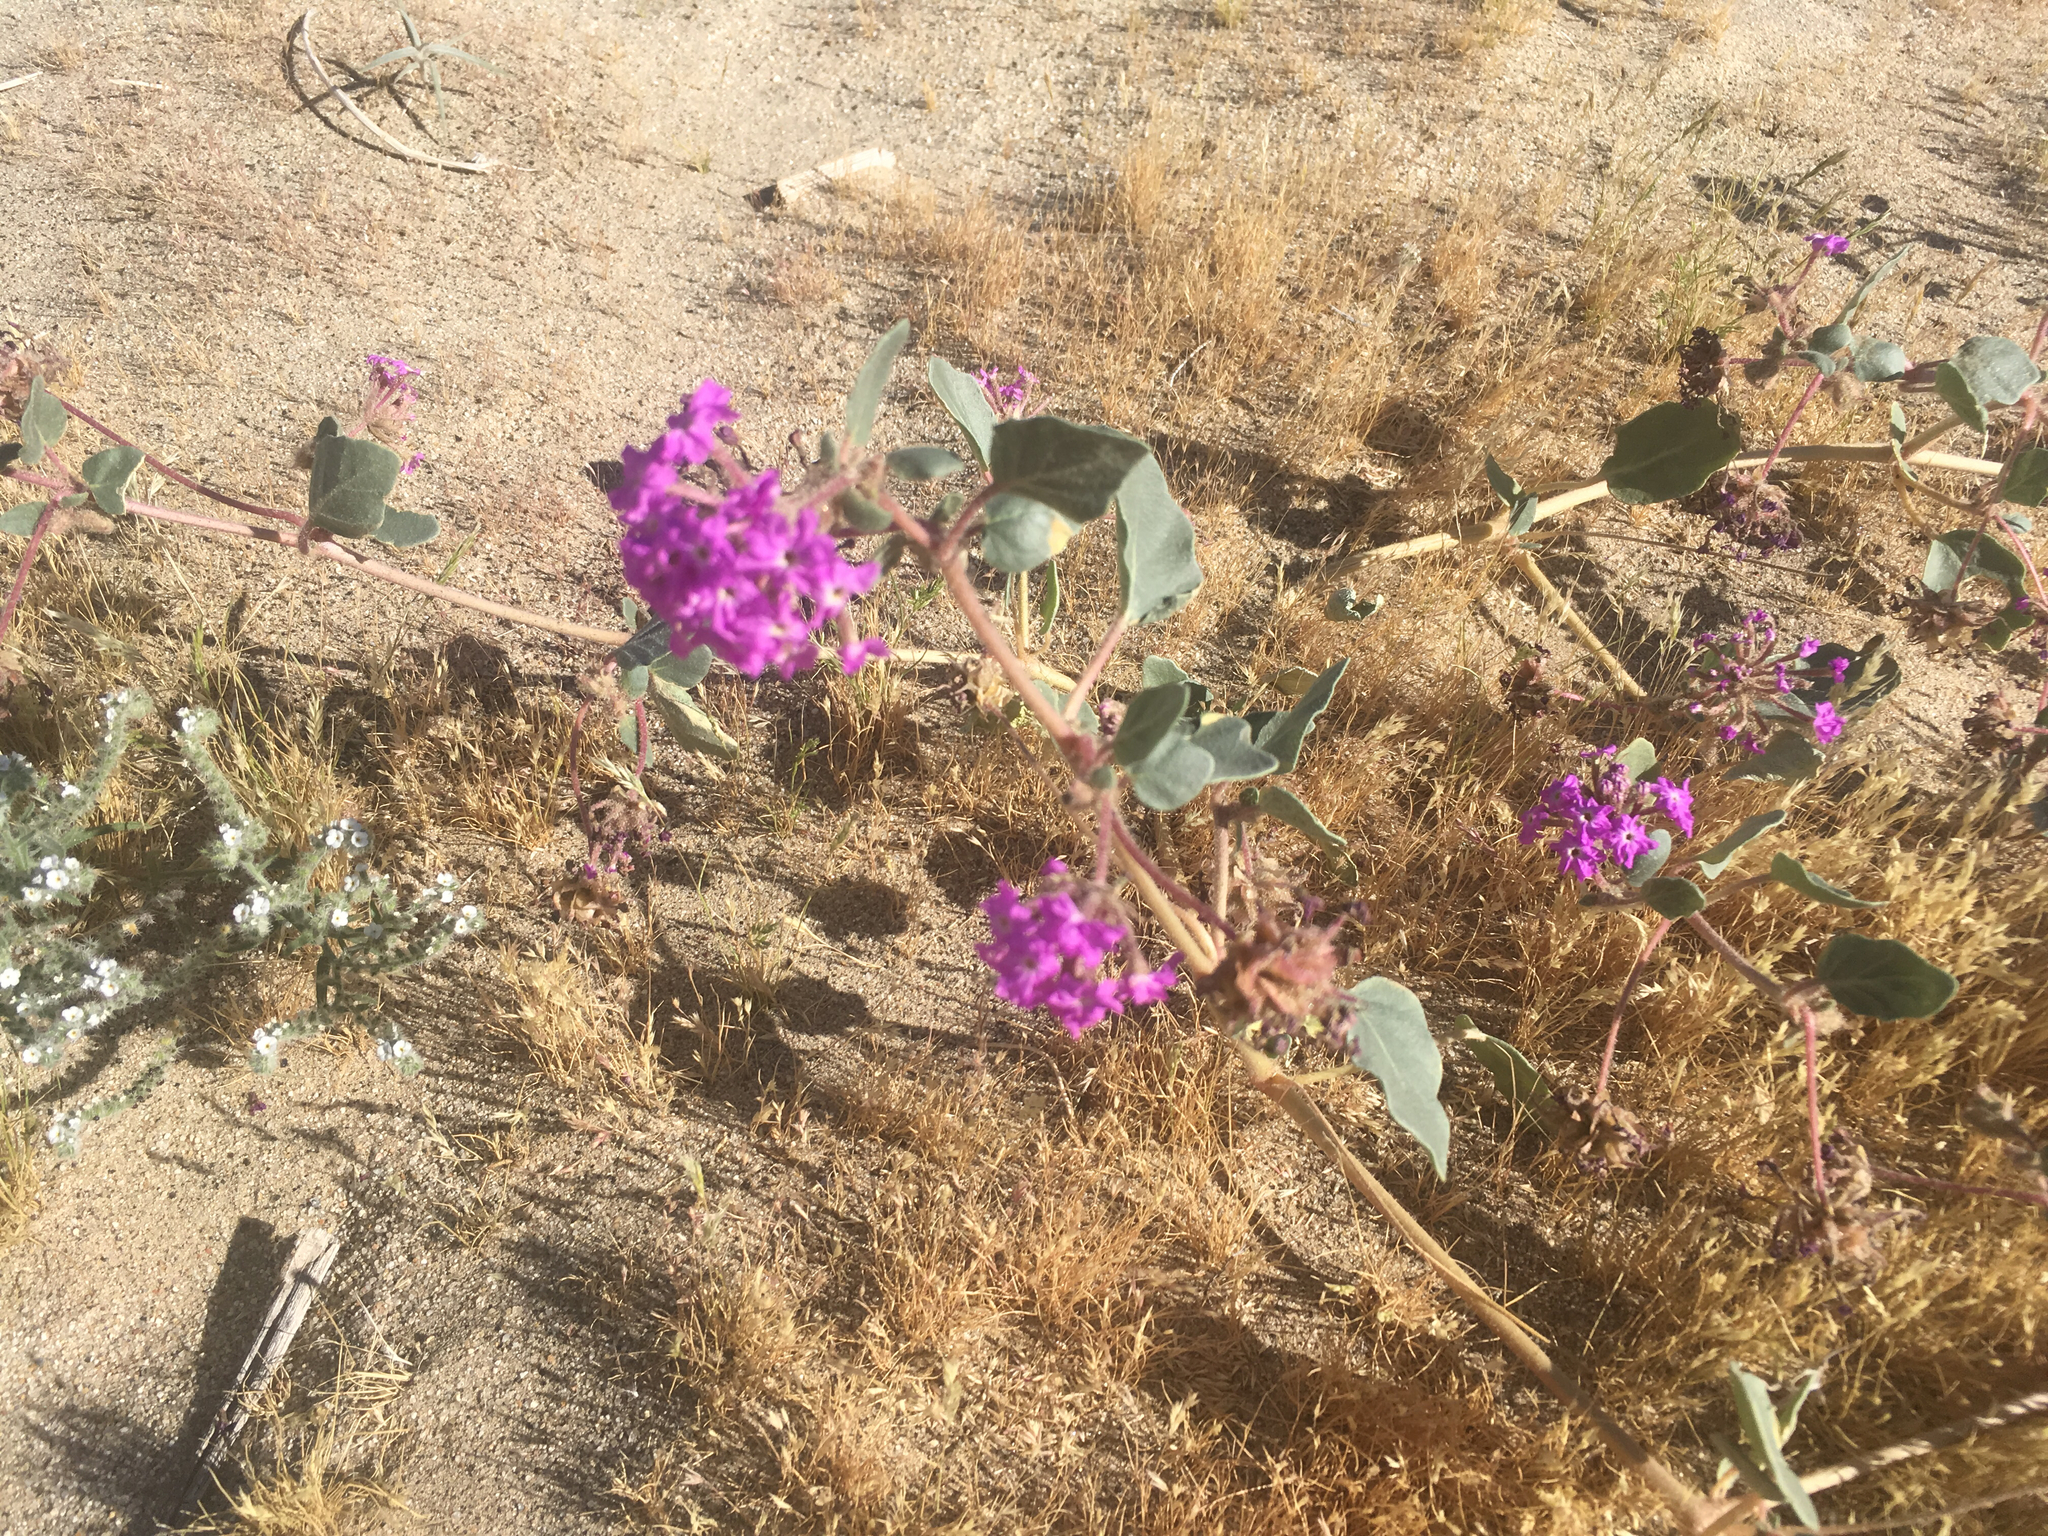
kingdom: Plantae
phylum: Tracheophyta
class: Magnoliopsida
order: Caryophyllales
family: Nyctaginaceae
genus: Abronia
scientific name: Abronia villosa
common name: Desert sand-verbena
